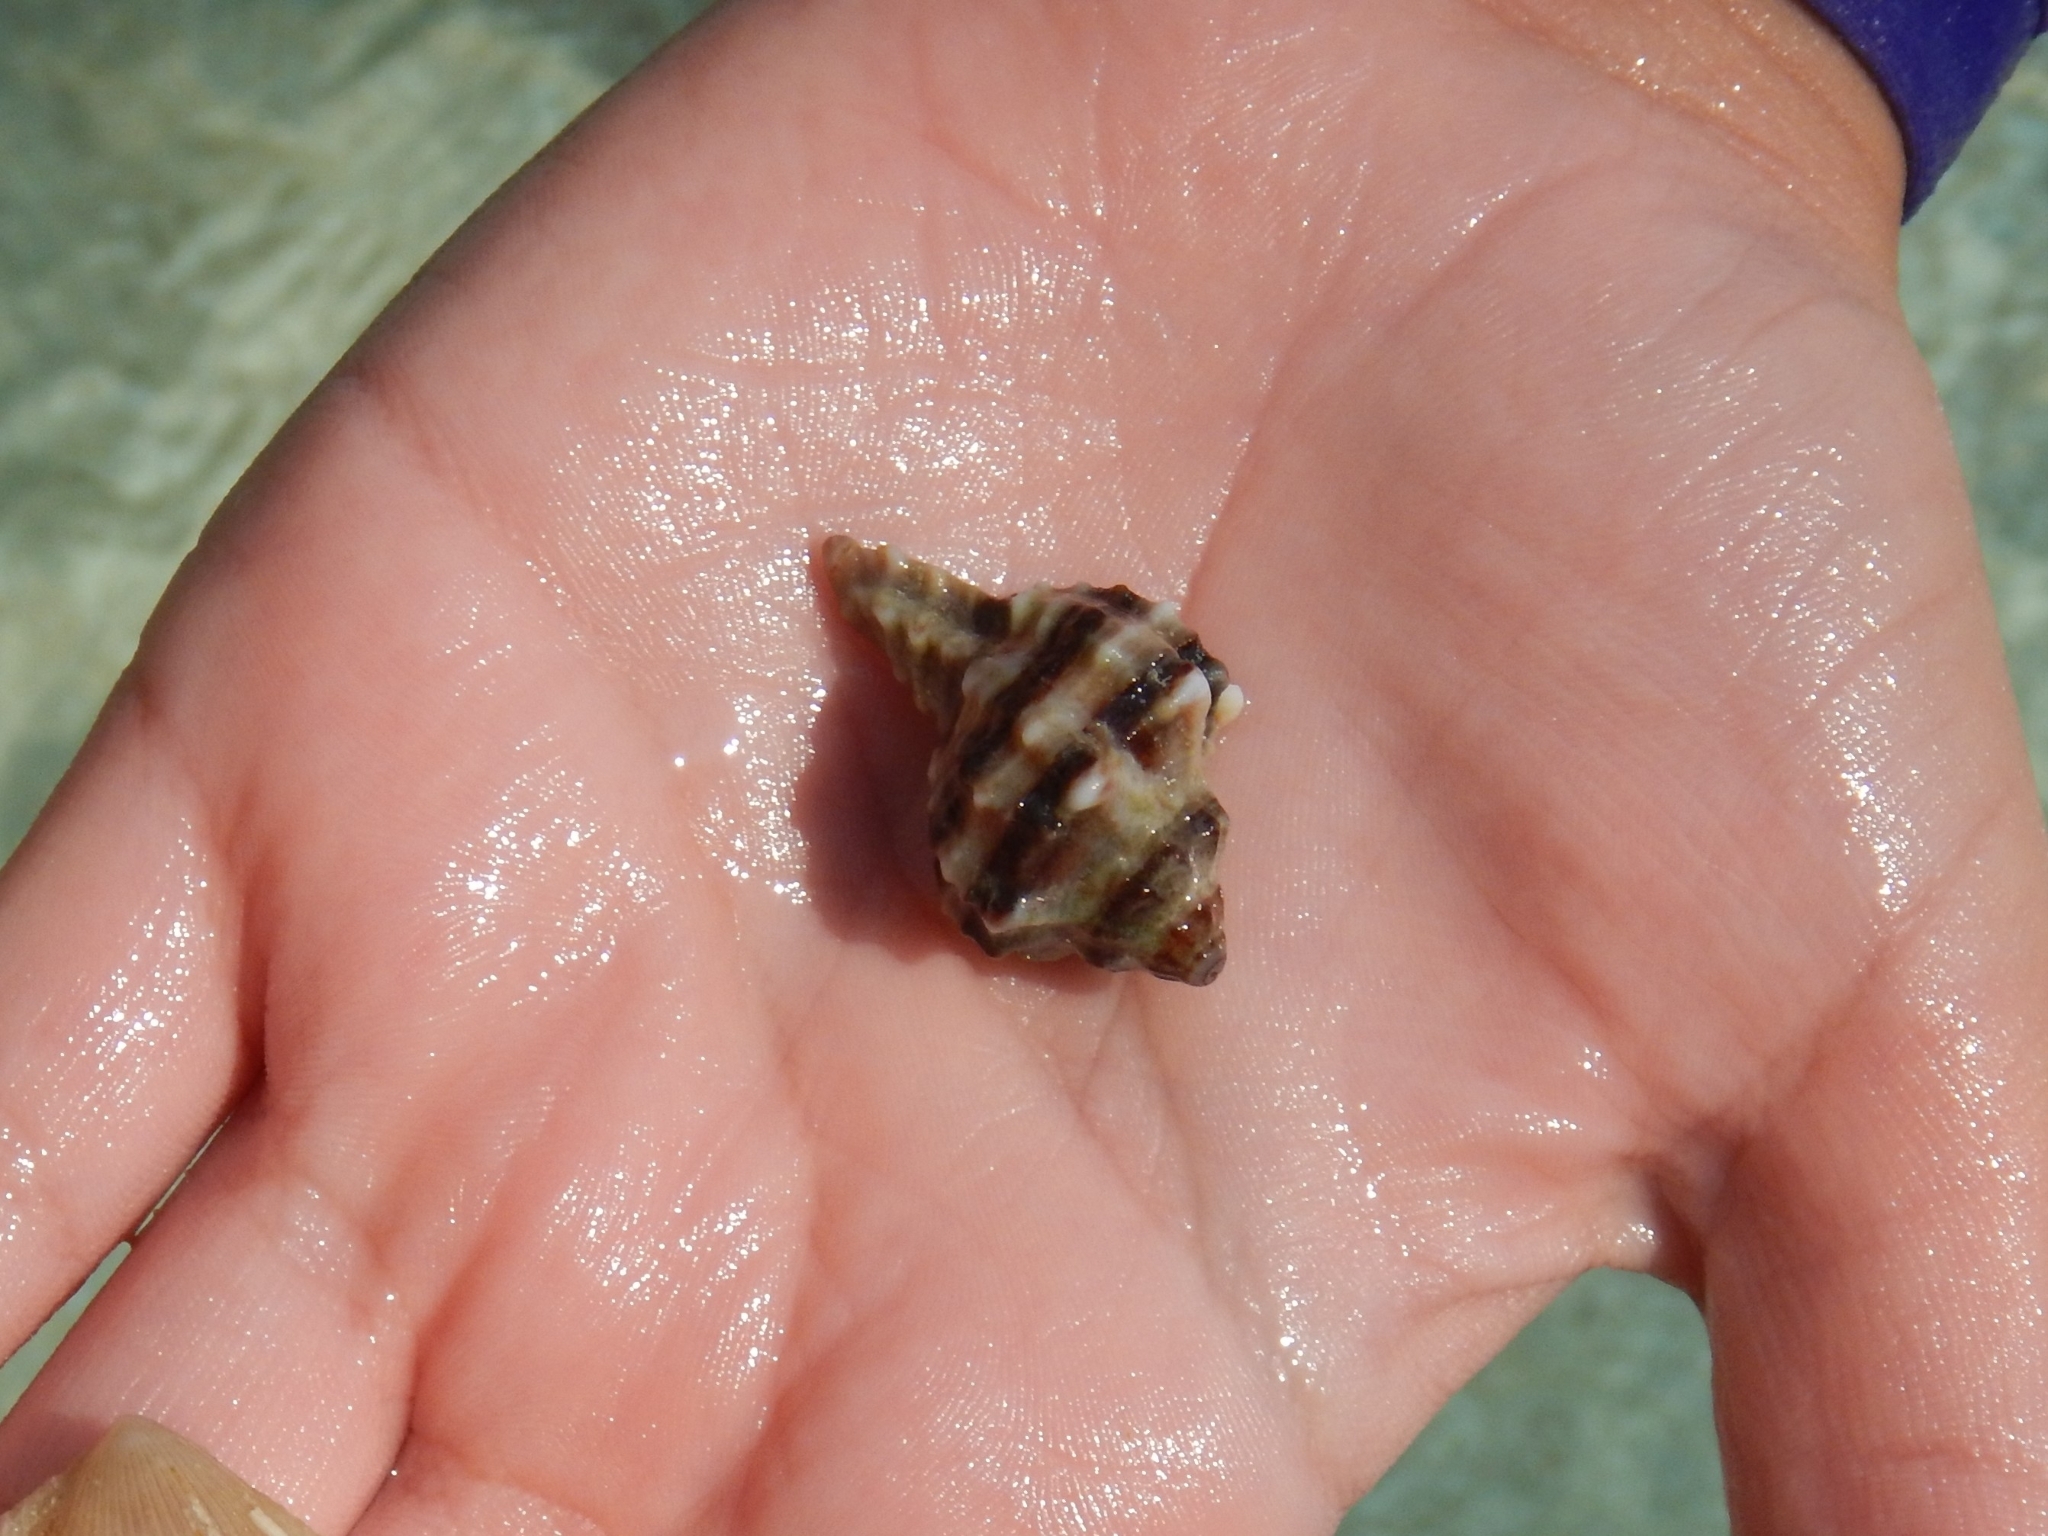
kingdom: Animalia
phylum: Mollusca
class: Gastropoda
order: Neogastropoda
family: Muricidae
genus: Hexaplex
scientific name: Hexaplex trunculus
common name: Banded dye-murex
